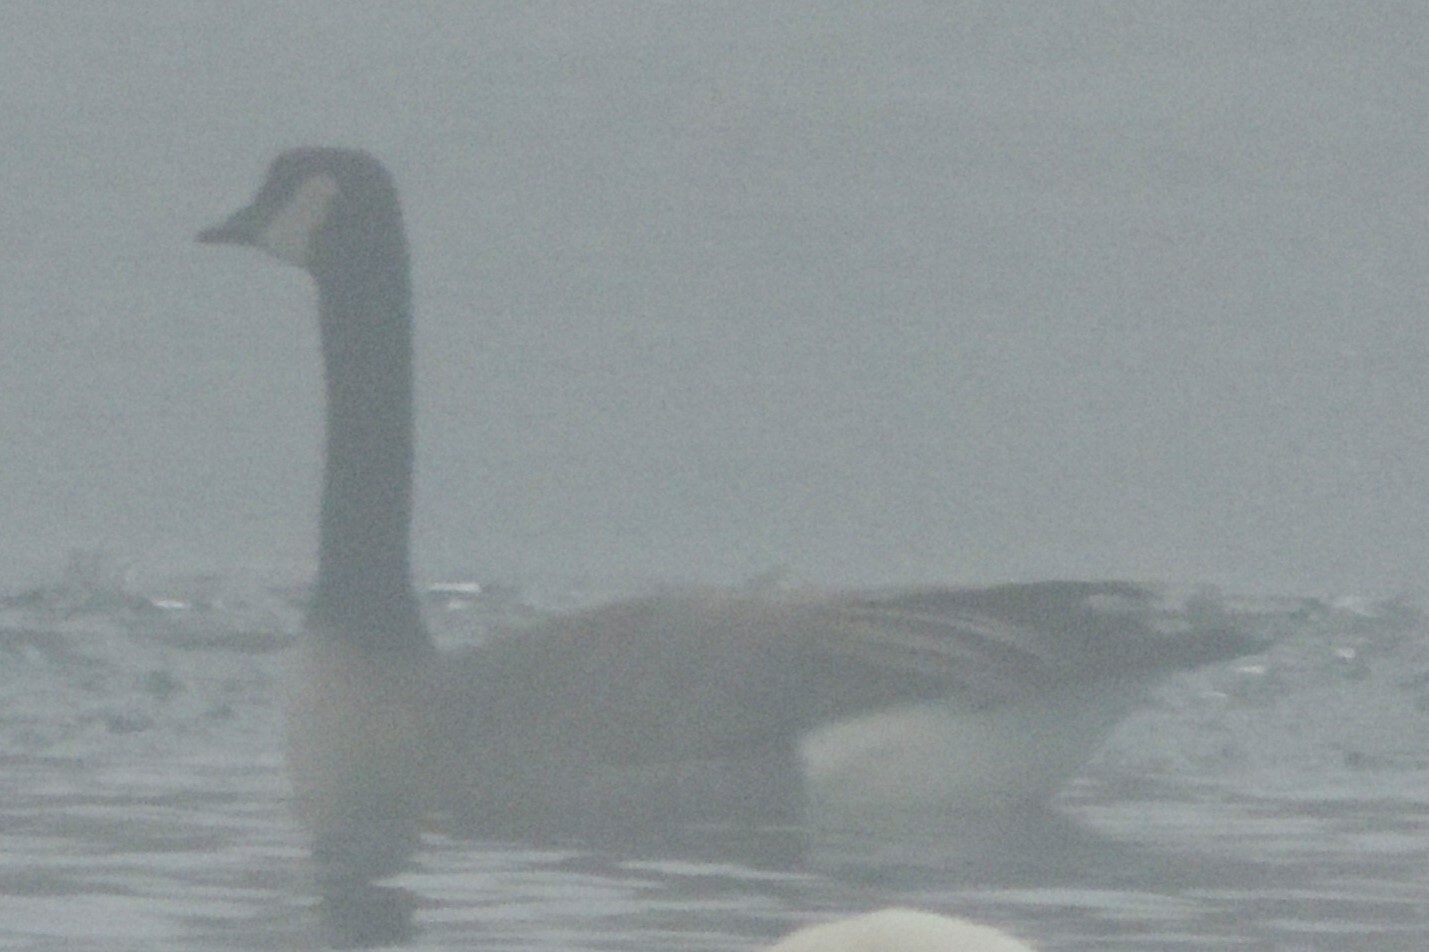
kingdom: Animalia
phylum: Chordata
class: Aves
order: Anseriformes
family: Anatidae
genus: Branta
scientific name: Branta canadensis
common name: Canada goose
